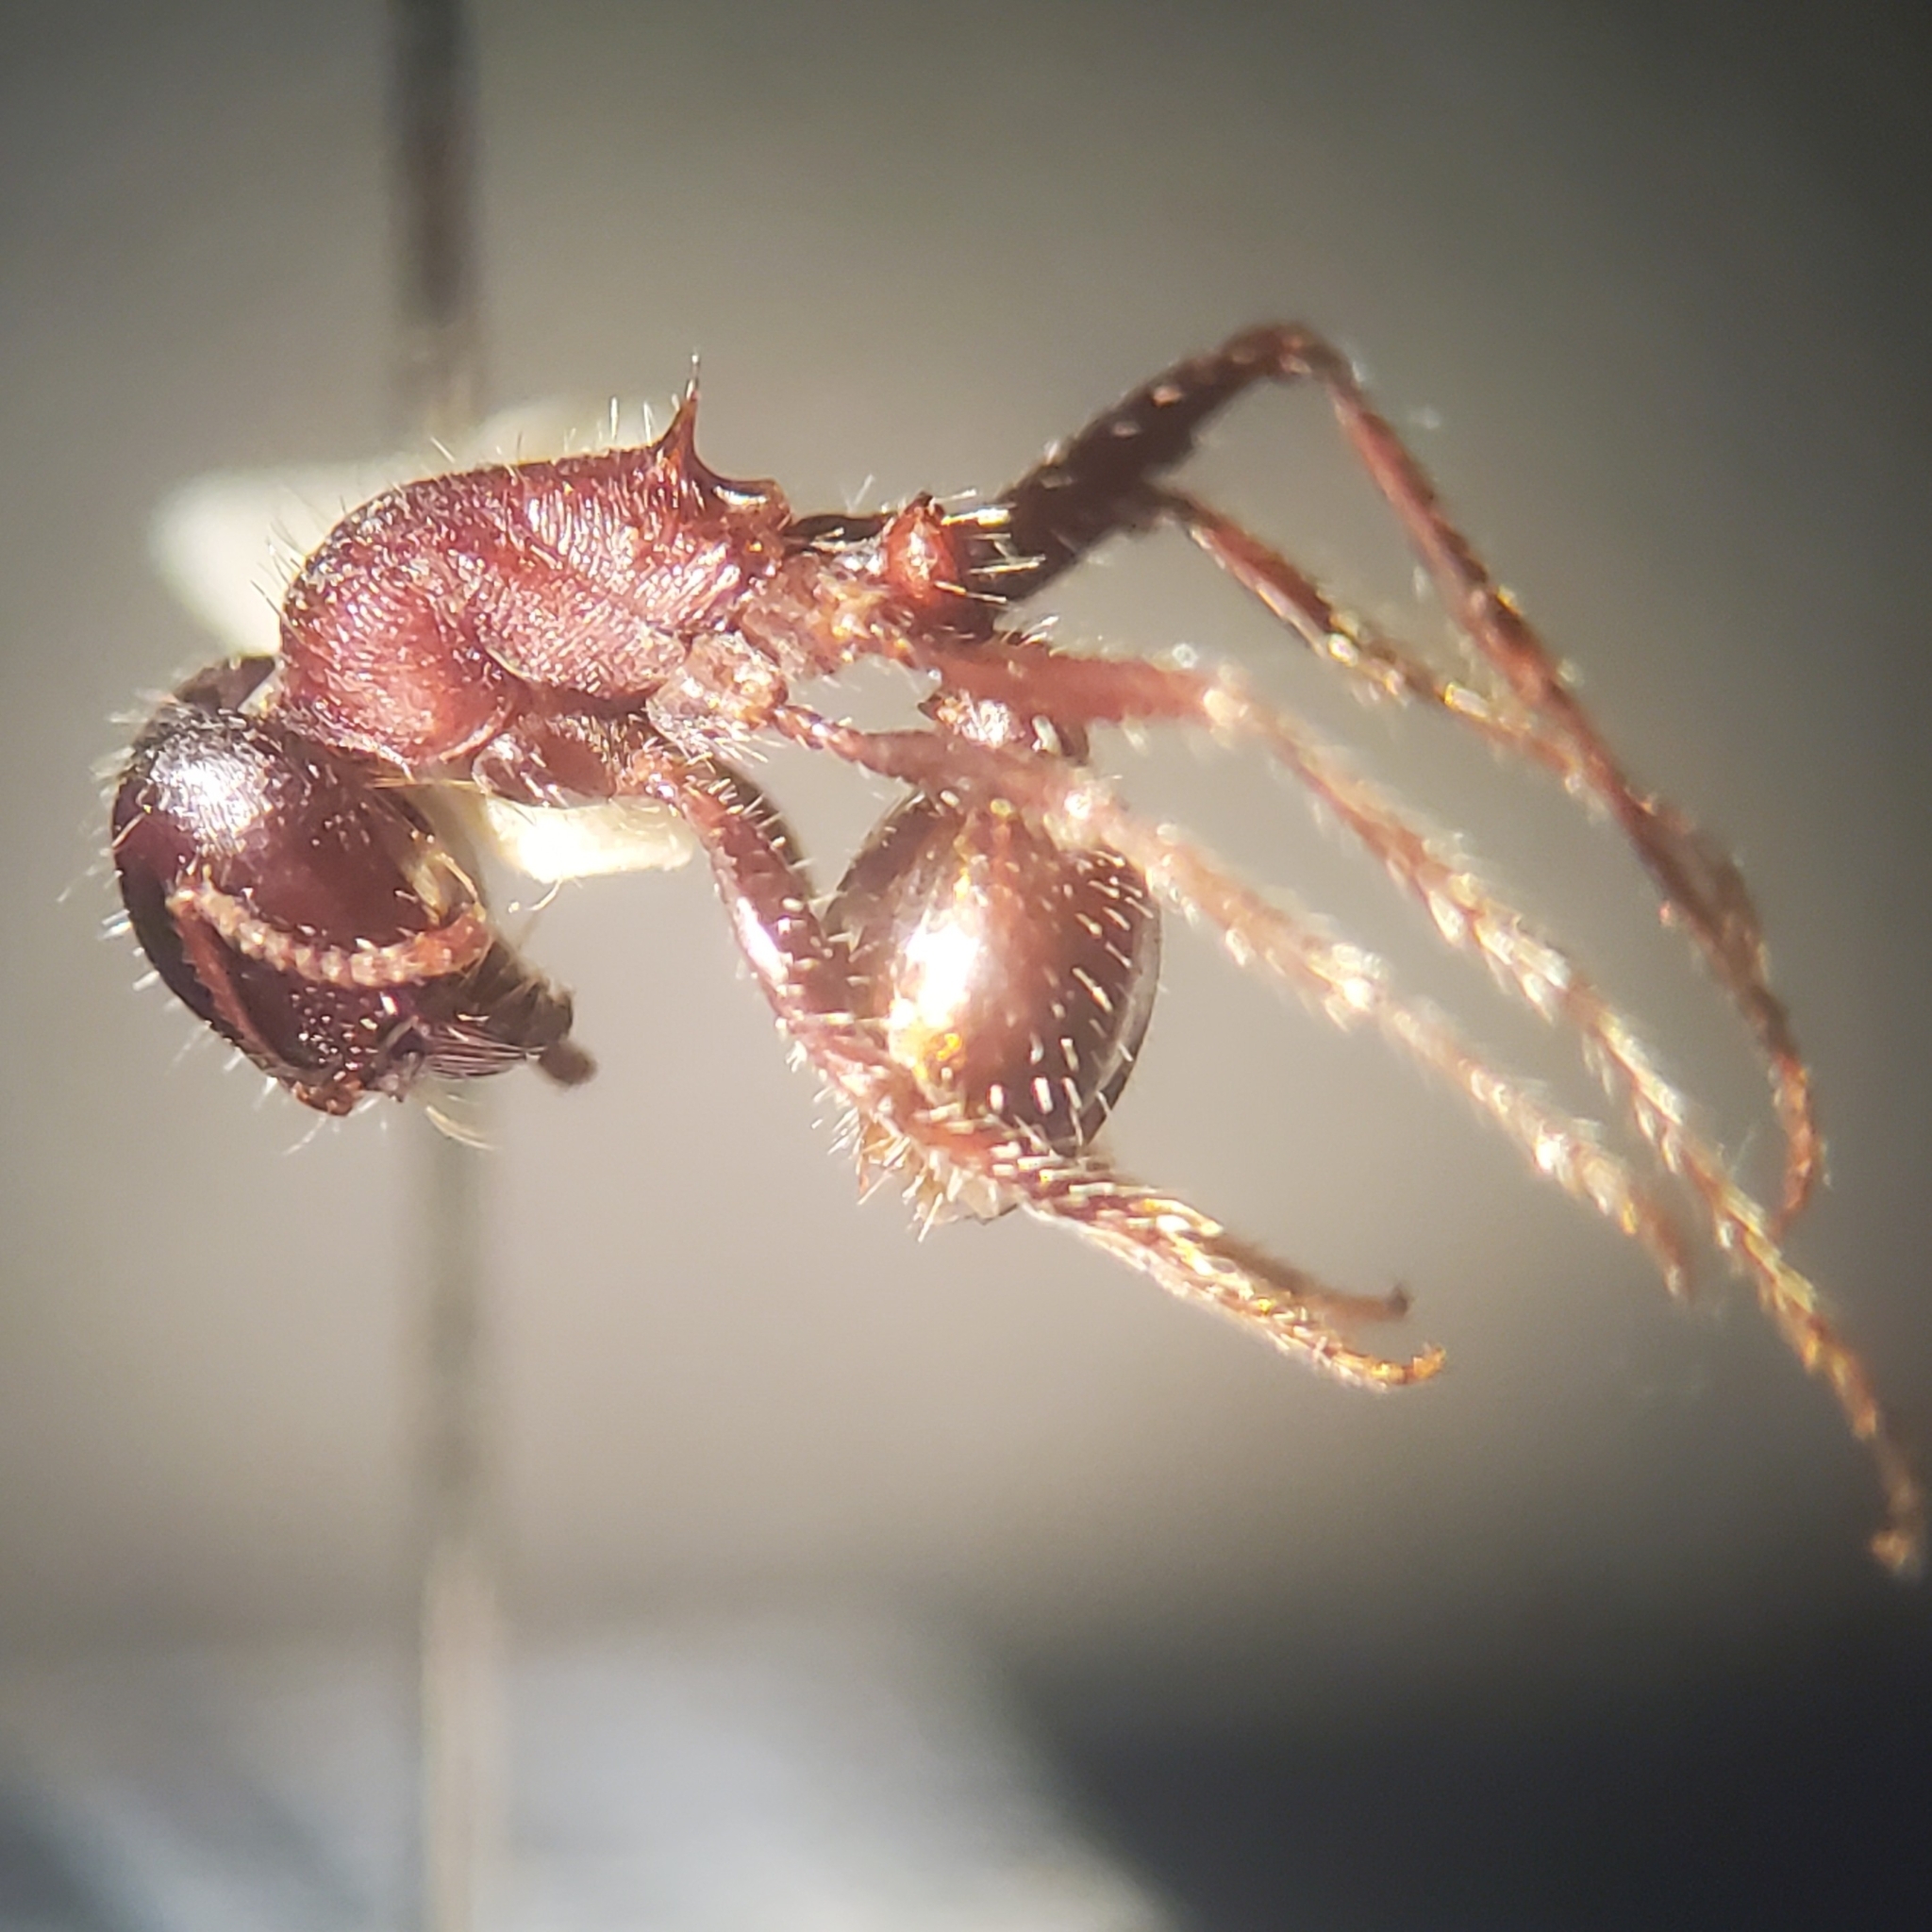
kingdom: Animalia
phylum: Arthropoda
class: Insecta
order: Hymenoptera
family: Formicidae
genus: Pogonomyrmex
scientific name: Pogonomyrmex rugosus
